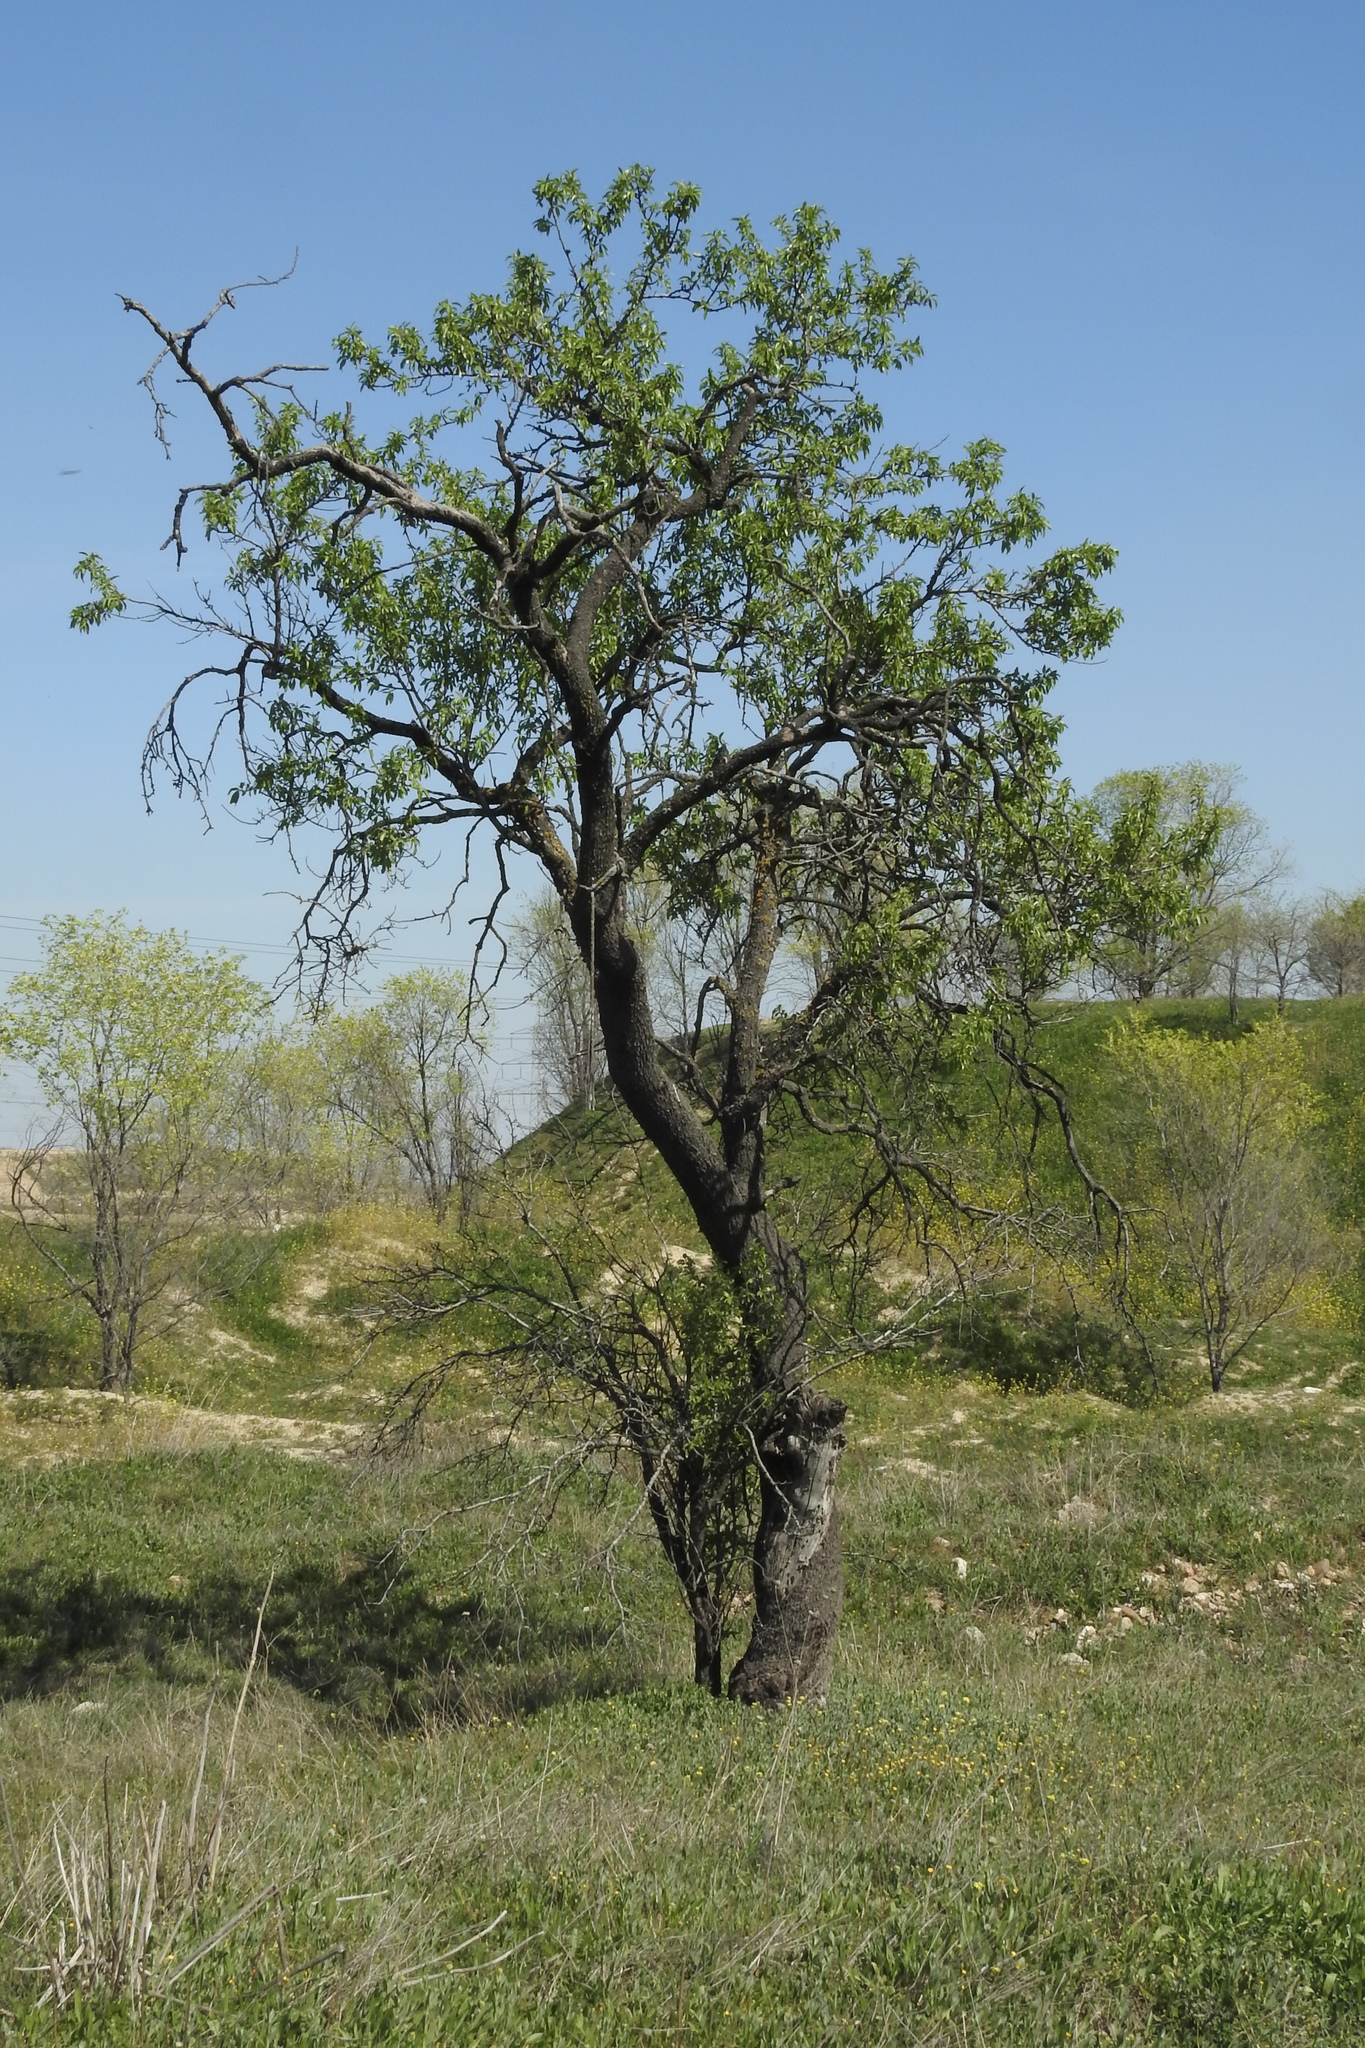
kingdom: Plantae
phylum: Tracheophyta
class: Magnoliopsida
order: Rosales
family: Rosaceae
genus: Prunus
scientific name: Prunus amygdalus
